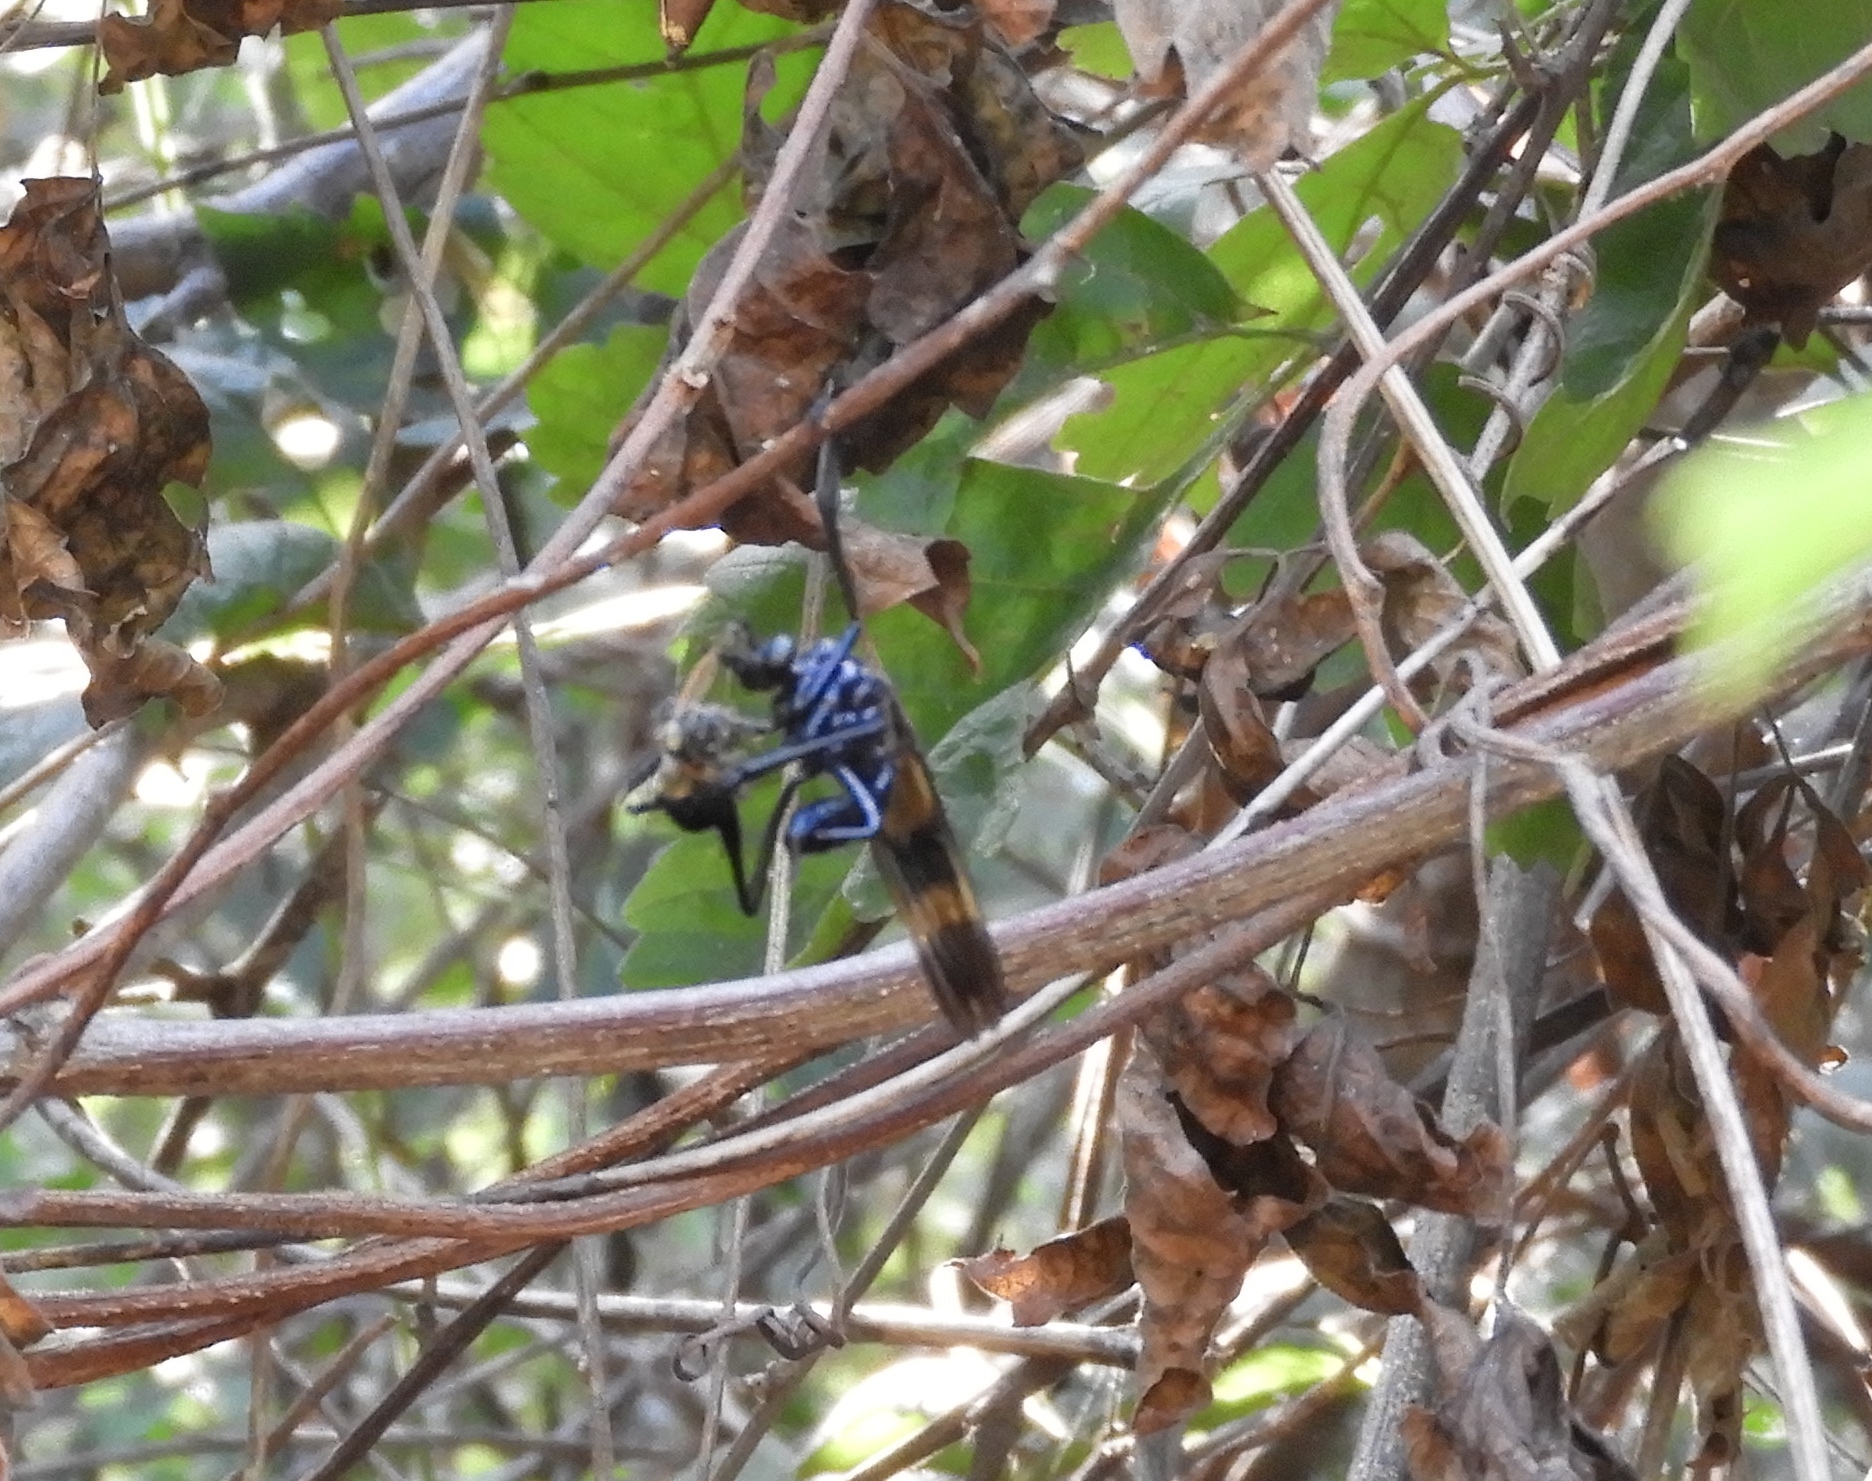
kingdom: Animalia
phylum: Arthropoda
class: Insecta
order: Diptera
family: Asilidae
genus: Pseudorus
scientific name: Pseudorus
